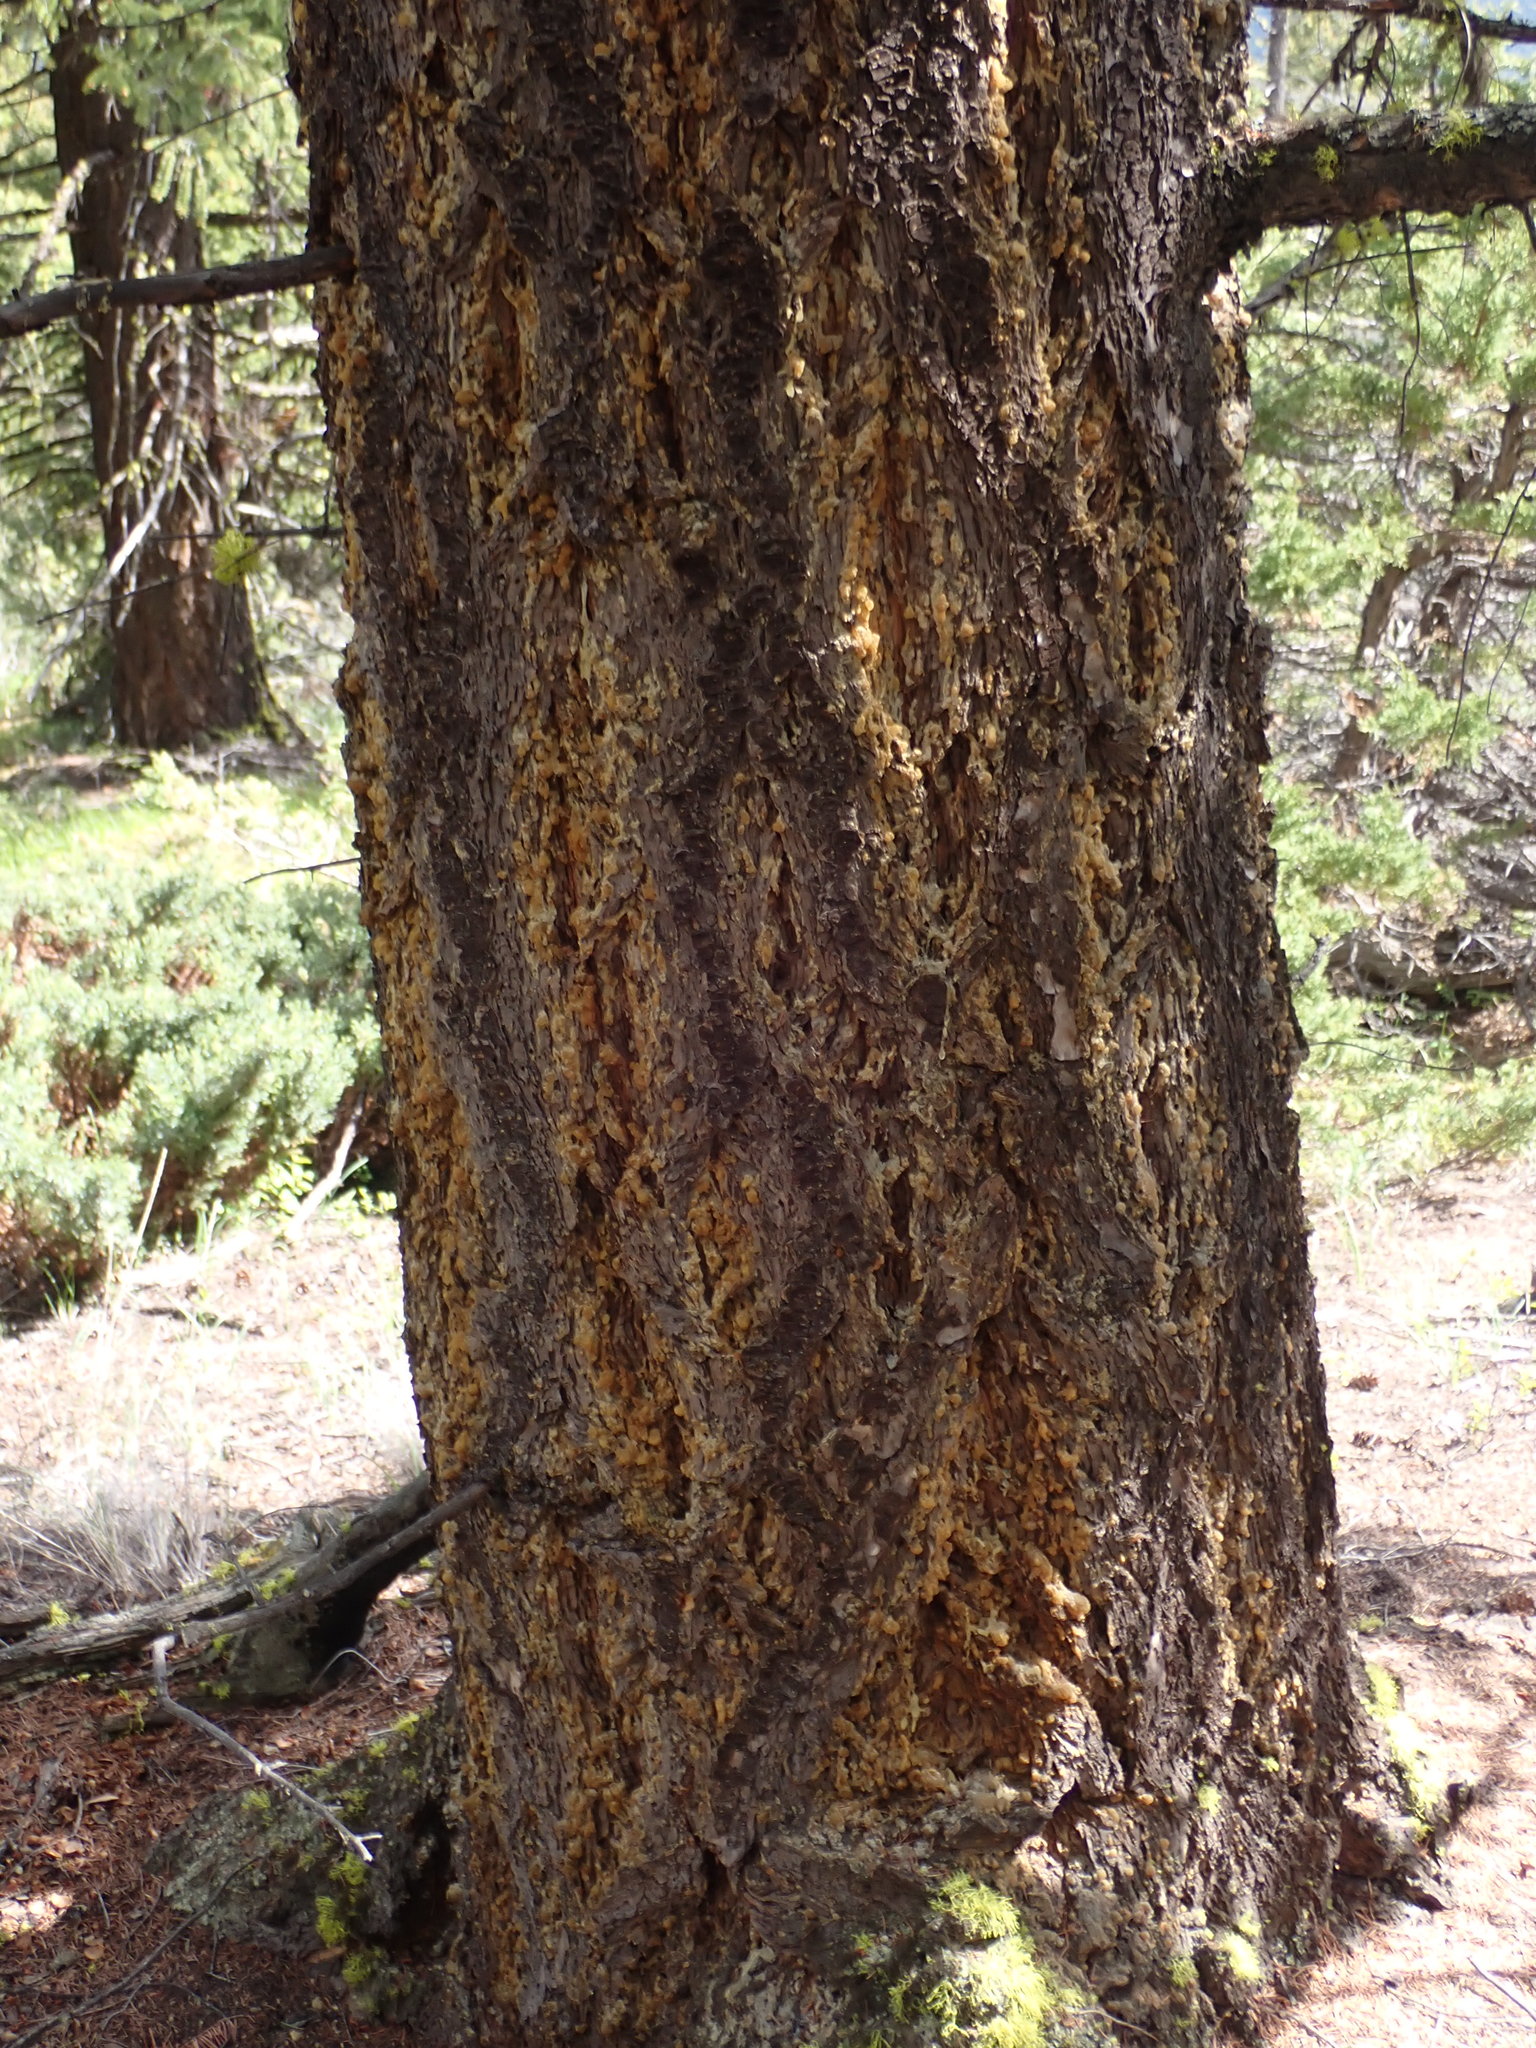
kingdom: Plantae
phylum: Tracheophyta
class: Pinopsida
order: Pinales
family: Pinaceae
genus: Pseudotsuga
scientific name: Pseudotsuga menziesii
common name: Douglas fir
